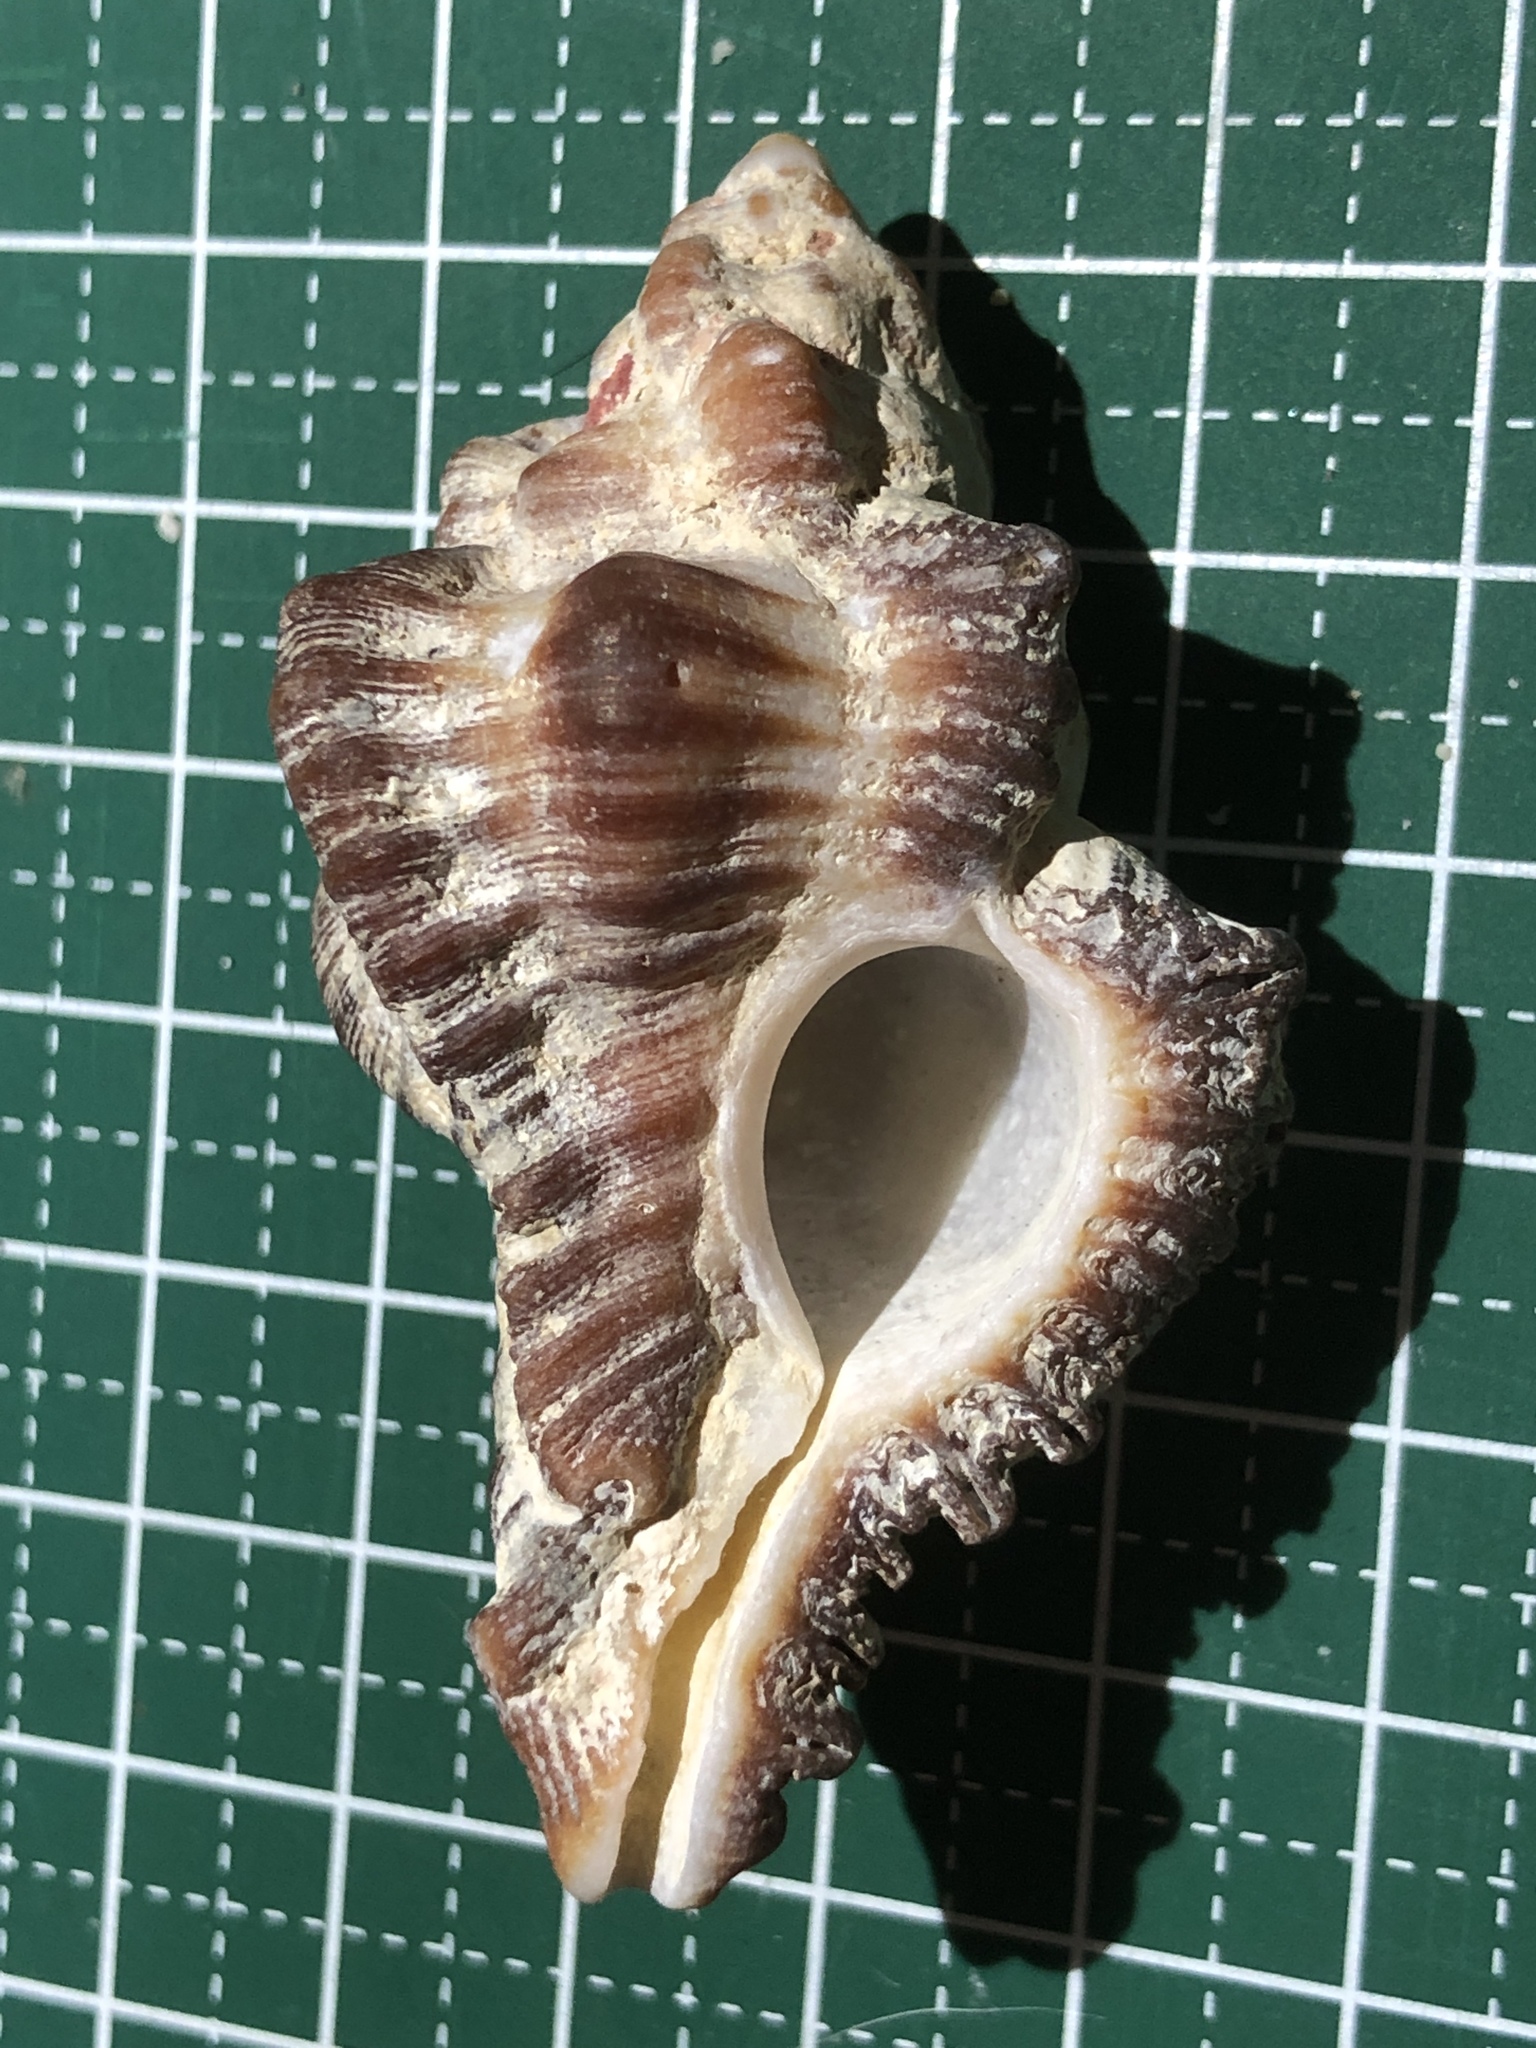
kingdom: Animalia
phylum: Mollusca
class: Gastropoda
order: Neogastropoda
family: Muricidae
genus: Chicoreus
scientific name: Chicoreus brunneus
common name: Adusta murex
